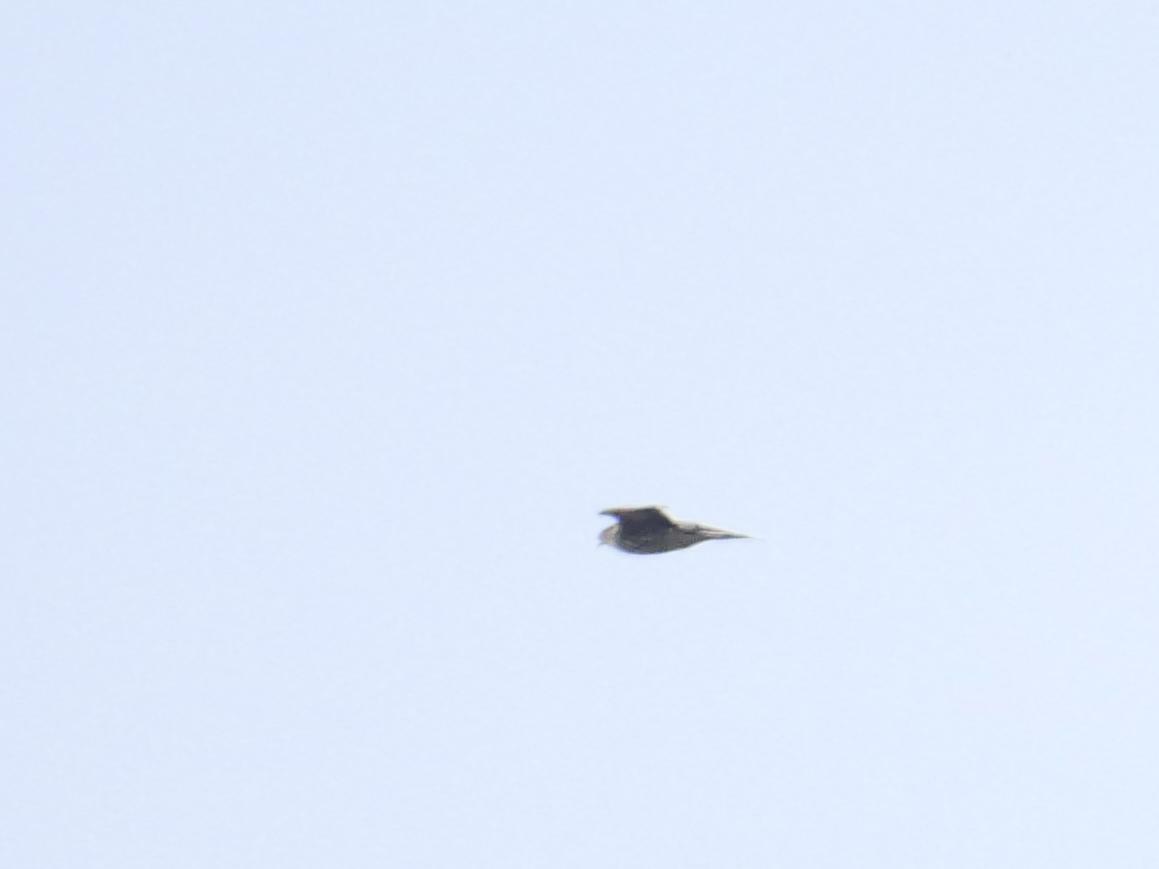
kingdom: Animalia
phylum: Chordata
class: Aves
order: Falconiformes
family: Falconidae
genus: Falco
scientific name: Falco columbarius
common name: Merlin
